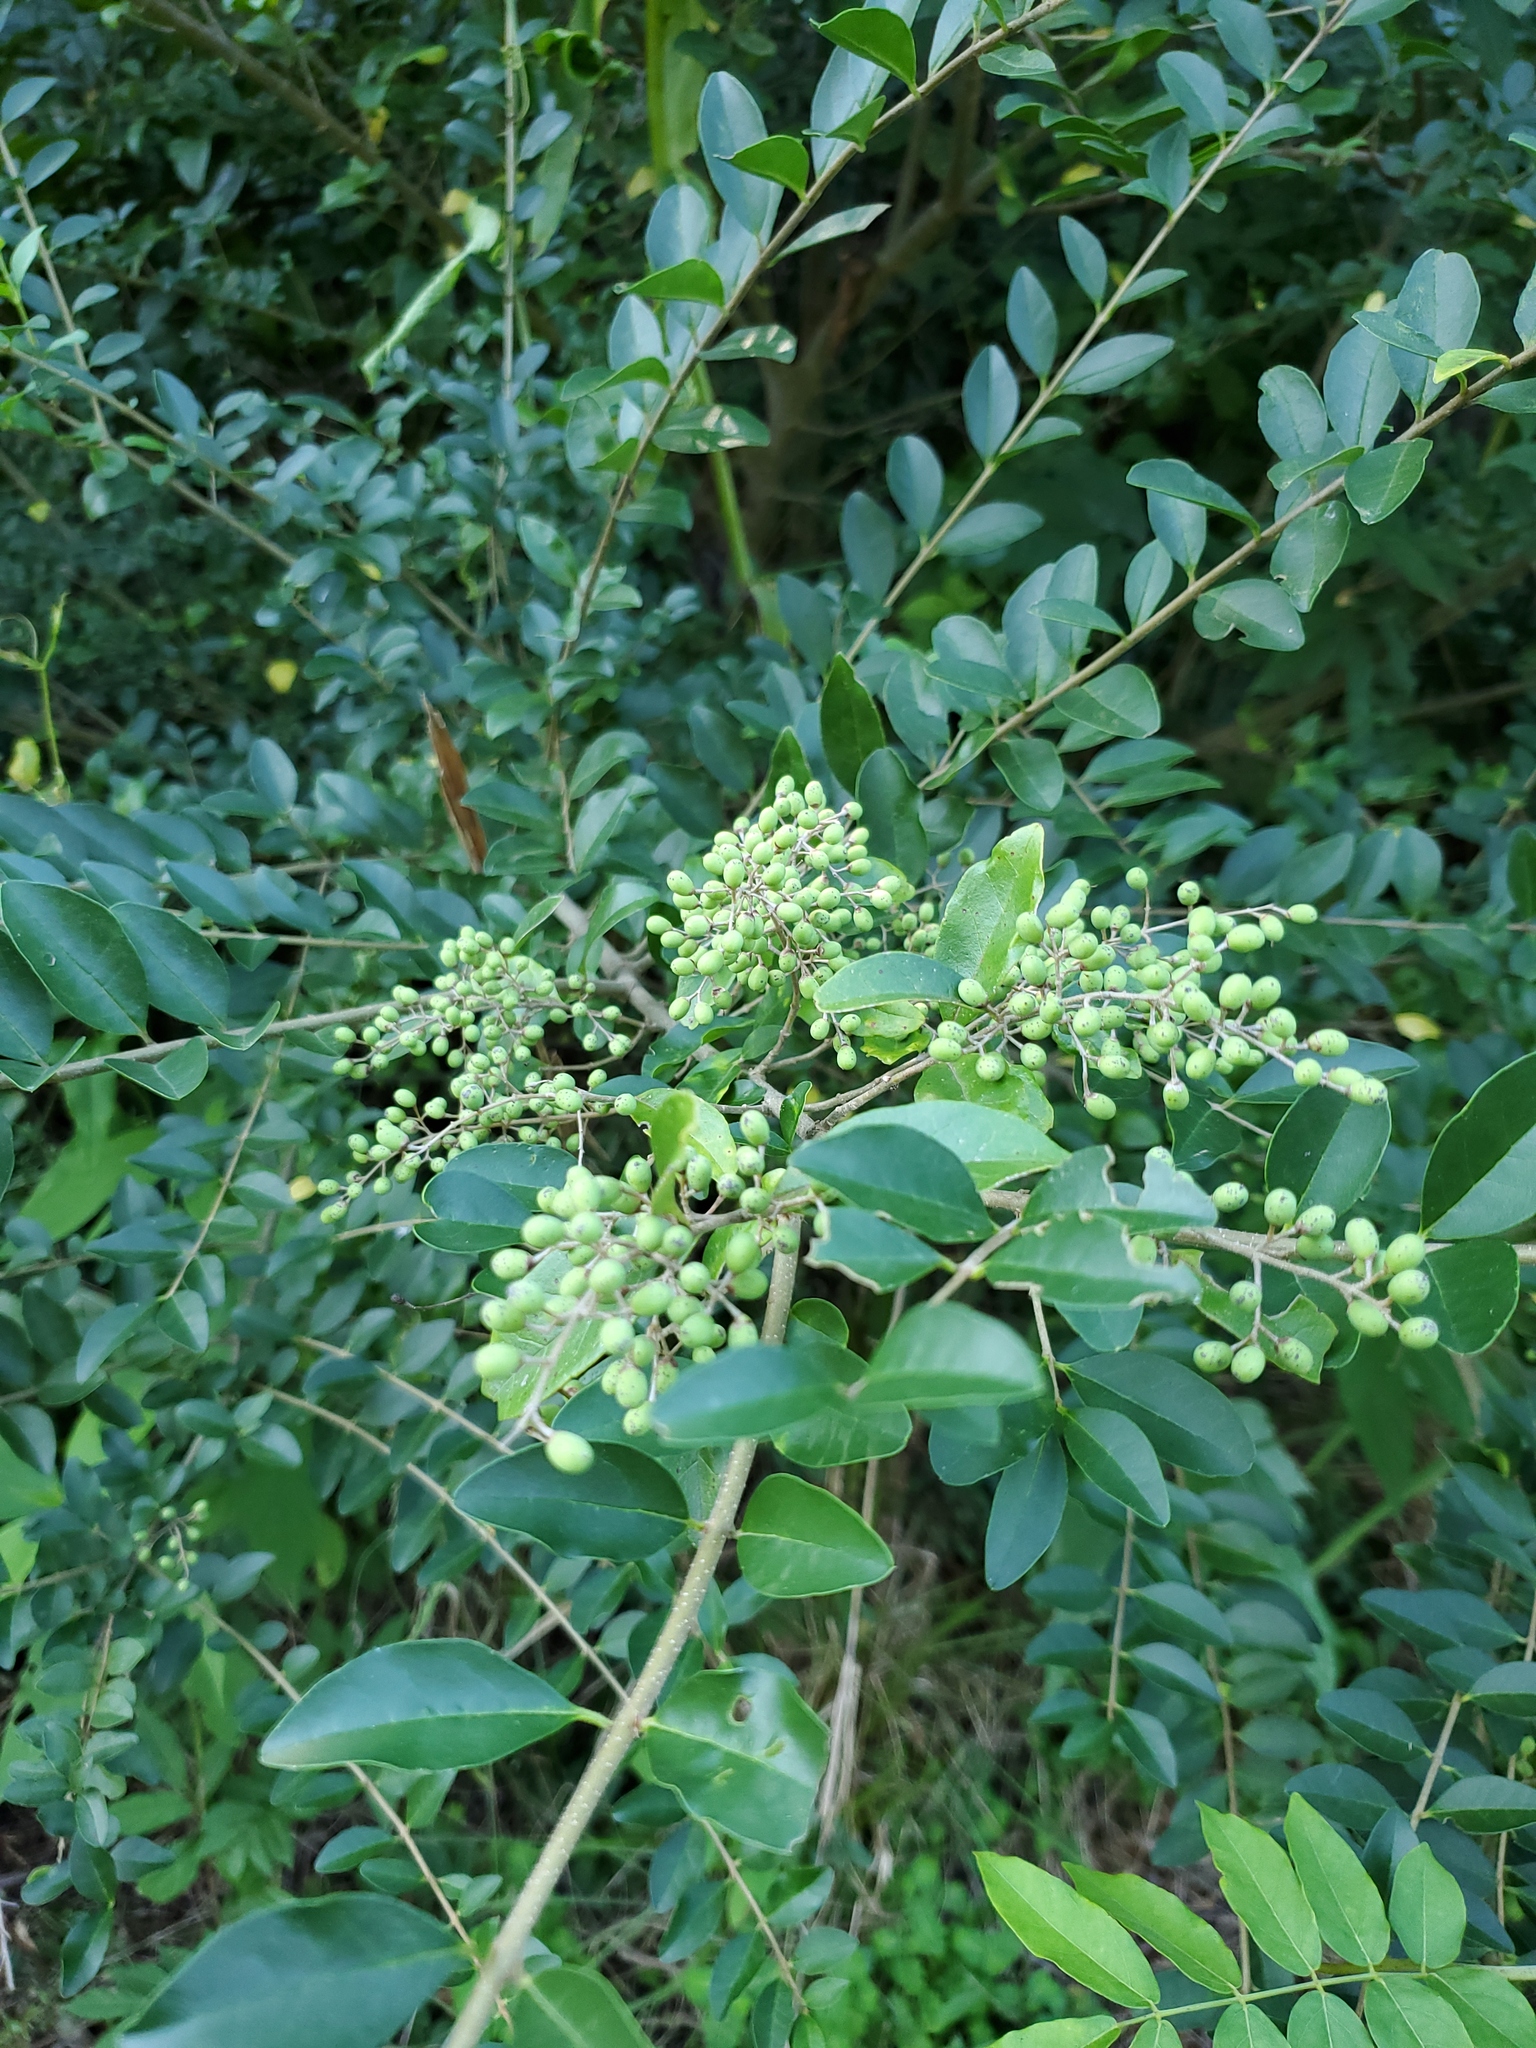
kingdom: Plantae
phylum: Tracheophyta
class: Magnoliopsida
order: Lamiales
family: Oleaceae
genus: Ligustrum
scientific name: Ligustrum sinense
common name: Chinese privet
